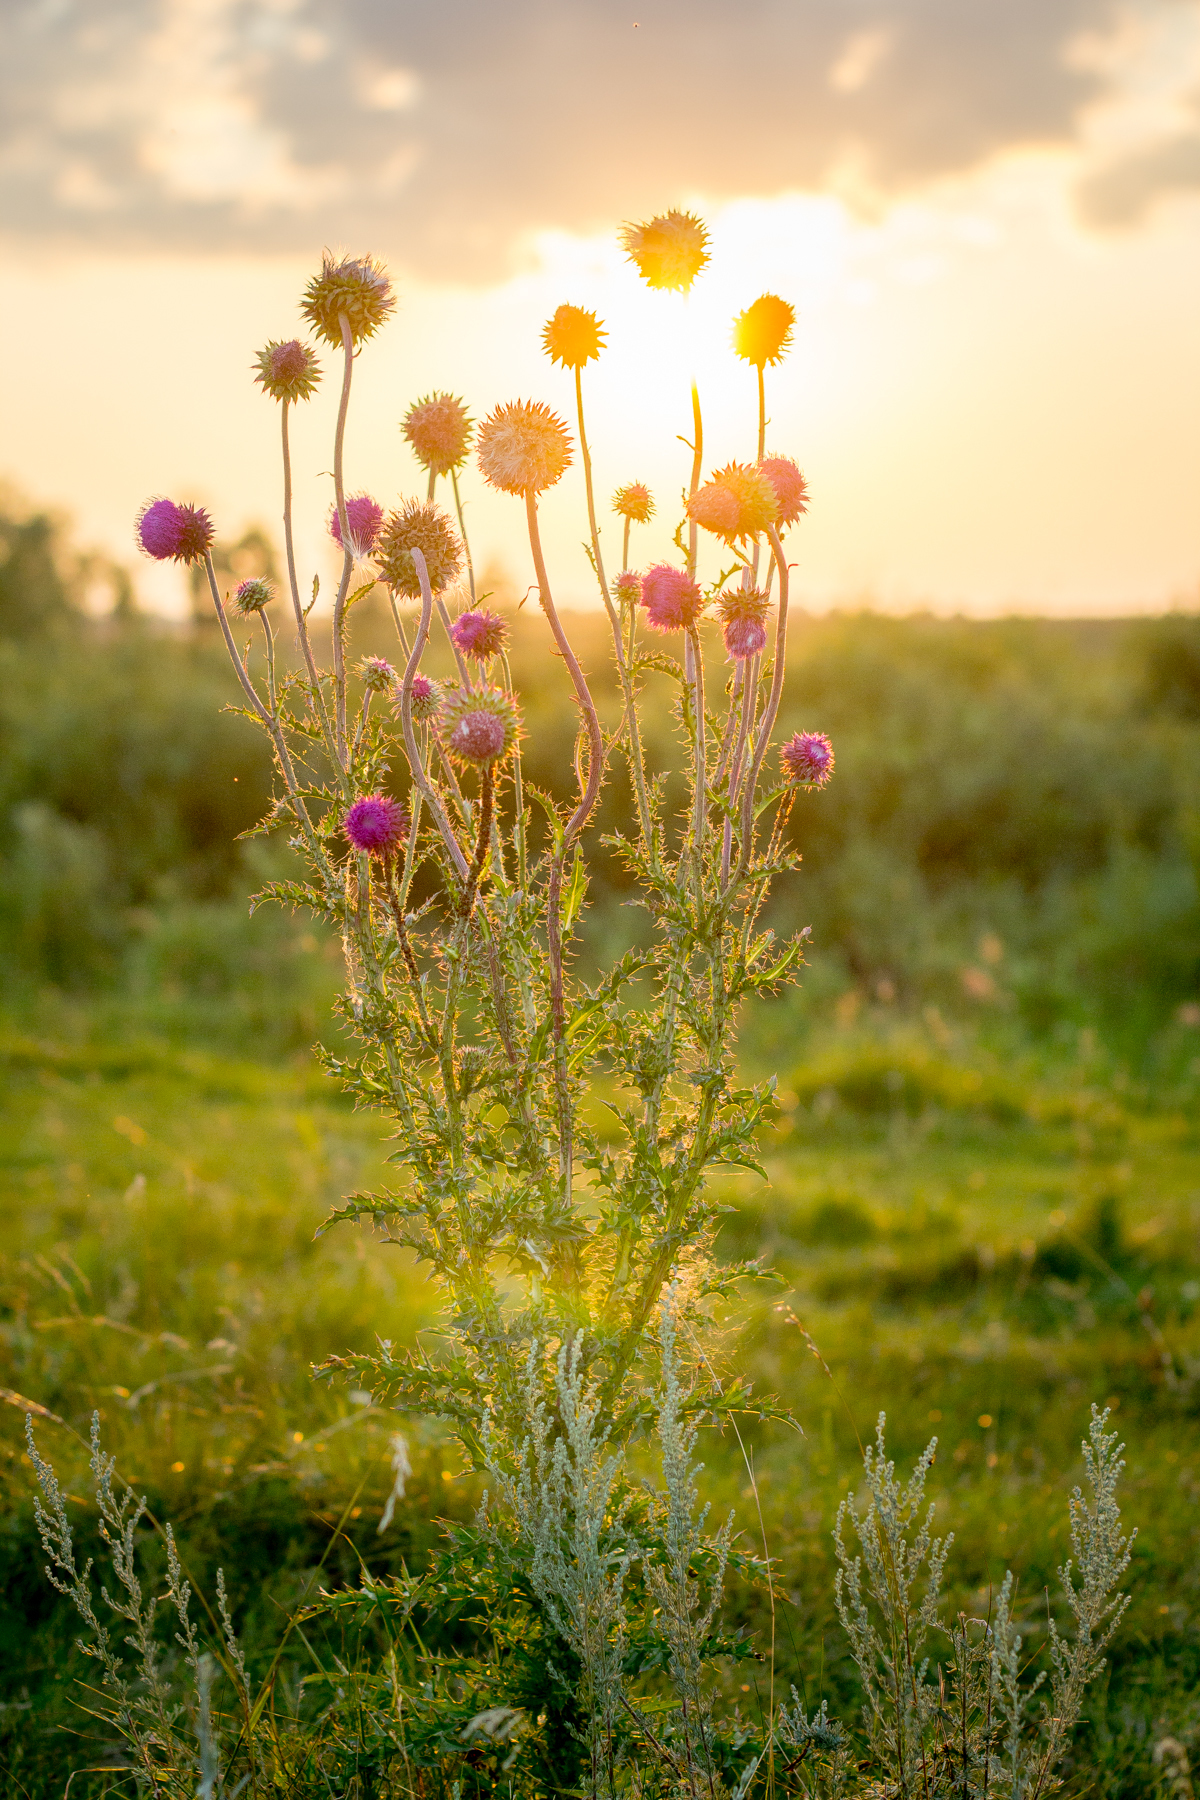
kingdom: Plantae
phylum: Tracheophyta
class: Magnoliopsida
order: Asterales
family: Asteraceae
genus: Carduus
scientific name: Carduus nutans
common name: Musk thistle
